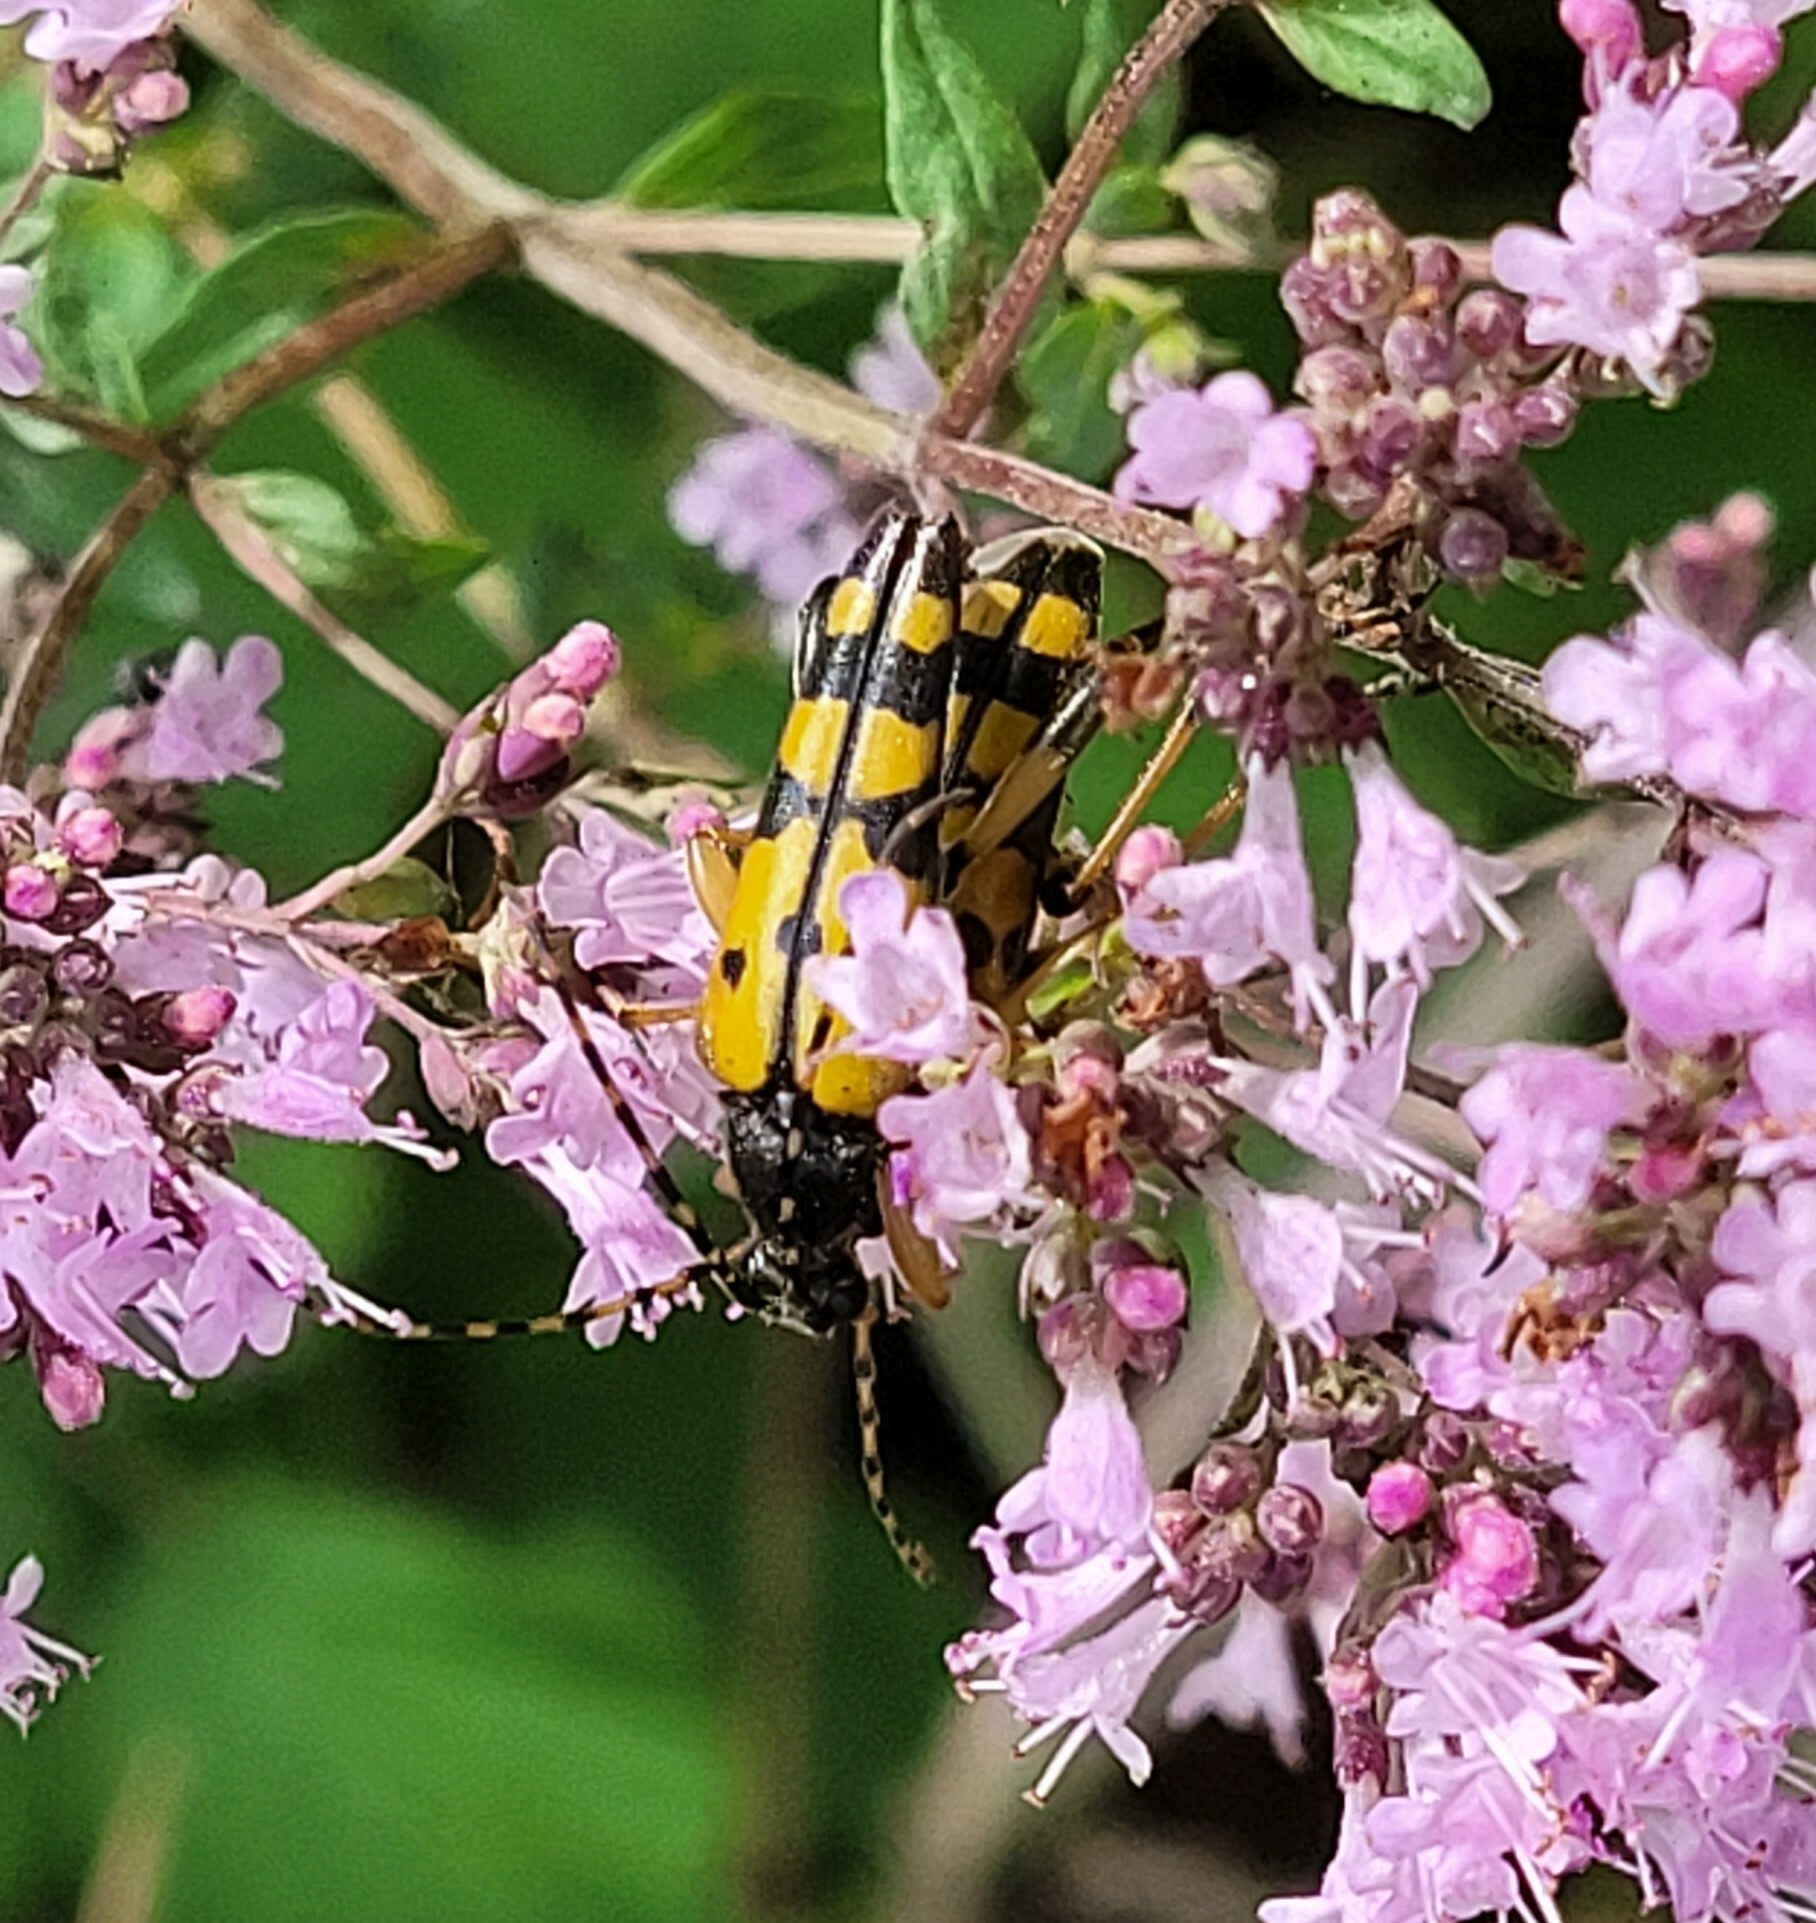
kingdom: Animalia
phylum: Arthropoda
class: Insecta
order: Coleoptera
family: Cerambycidae
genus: Rutpela
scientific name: Rutpela maculata
